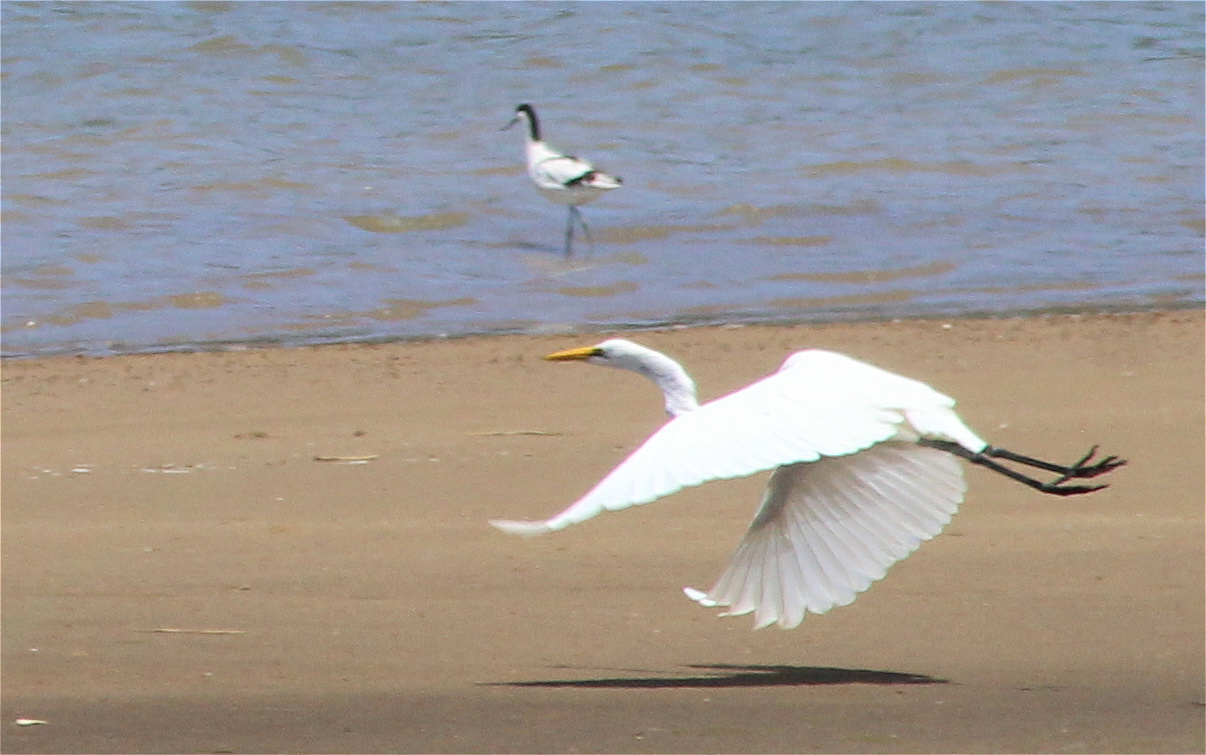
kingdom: Animalia
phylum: Chordata
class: Aves
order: Pelecaniformes
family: Ardeidae
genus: Ardea
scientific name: Ardea alba
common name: Great egret
